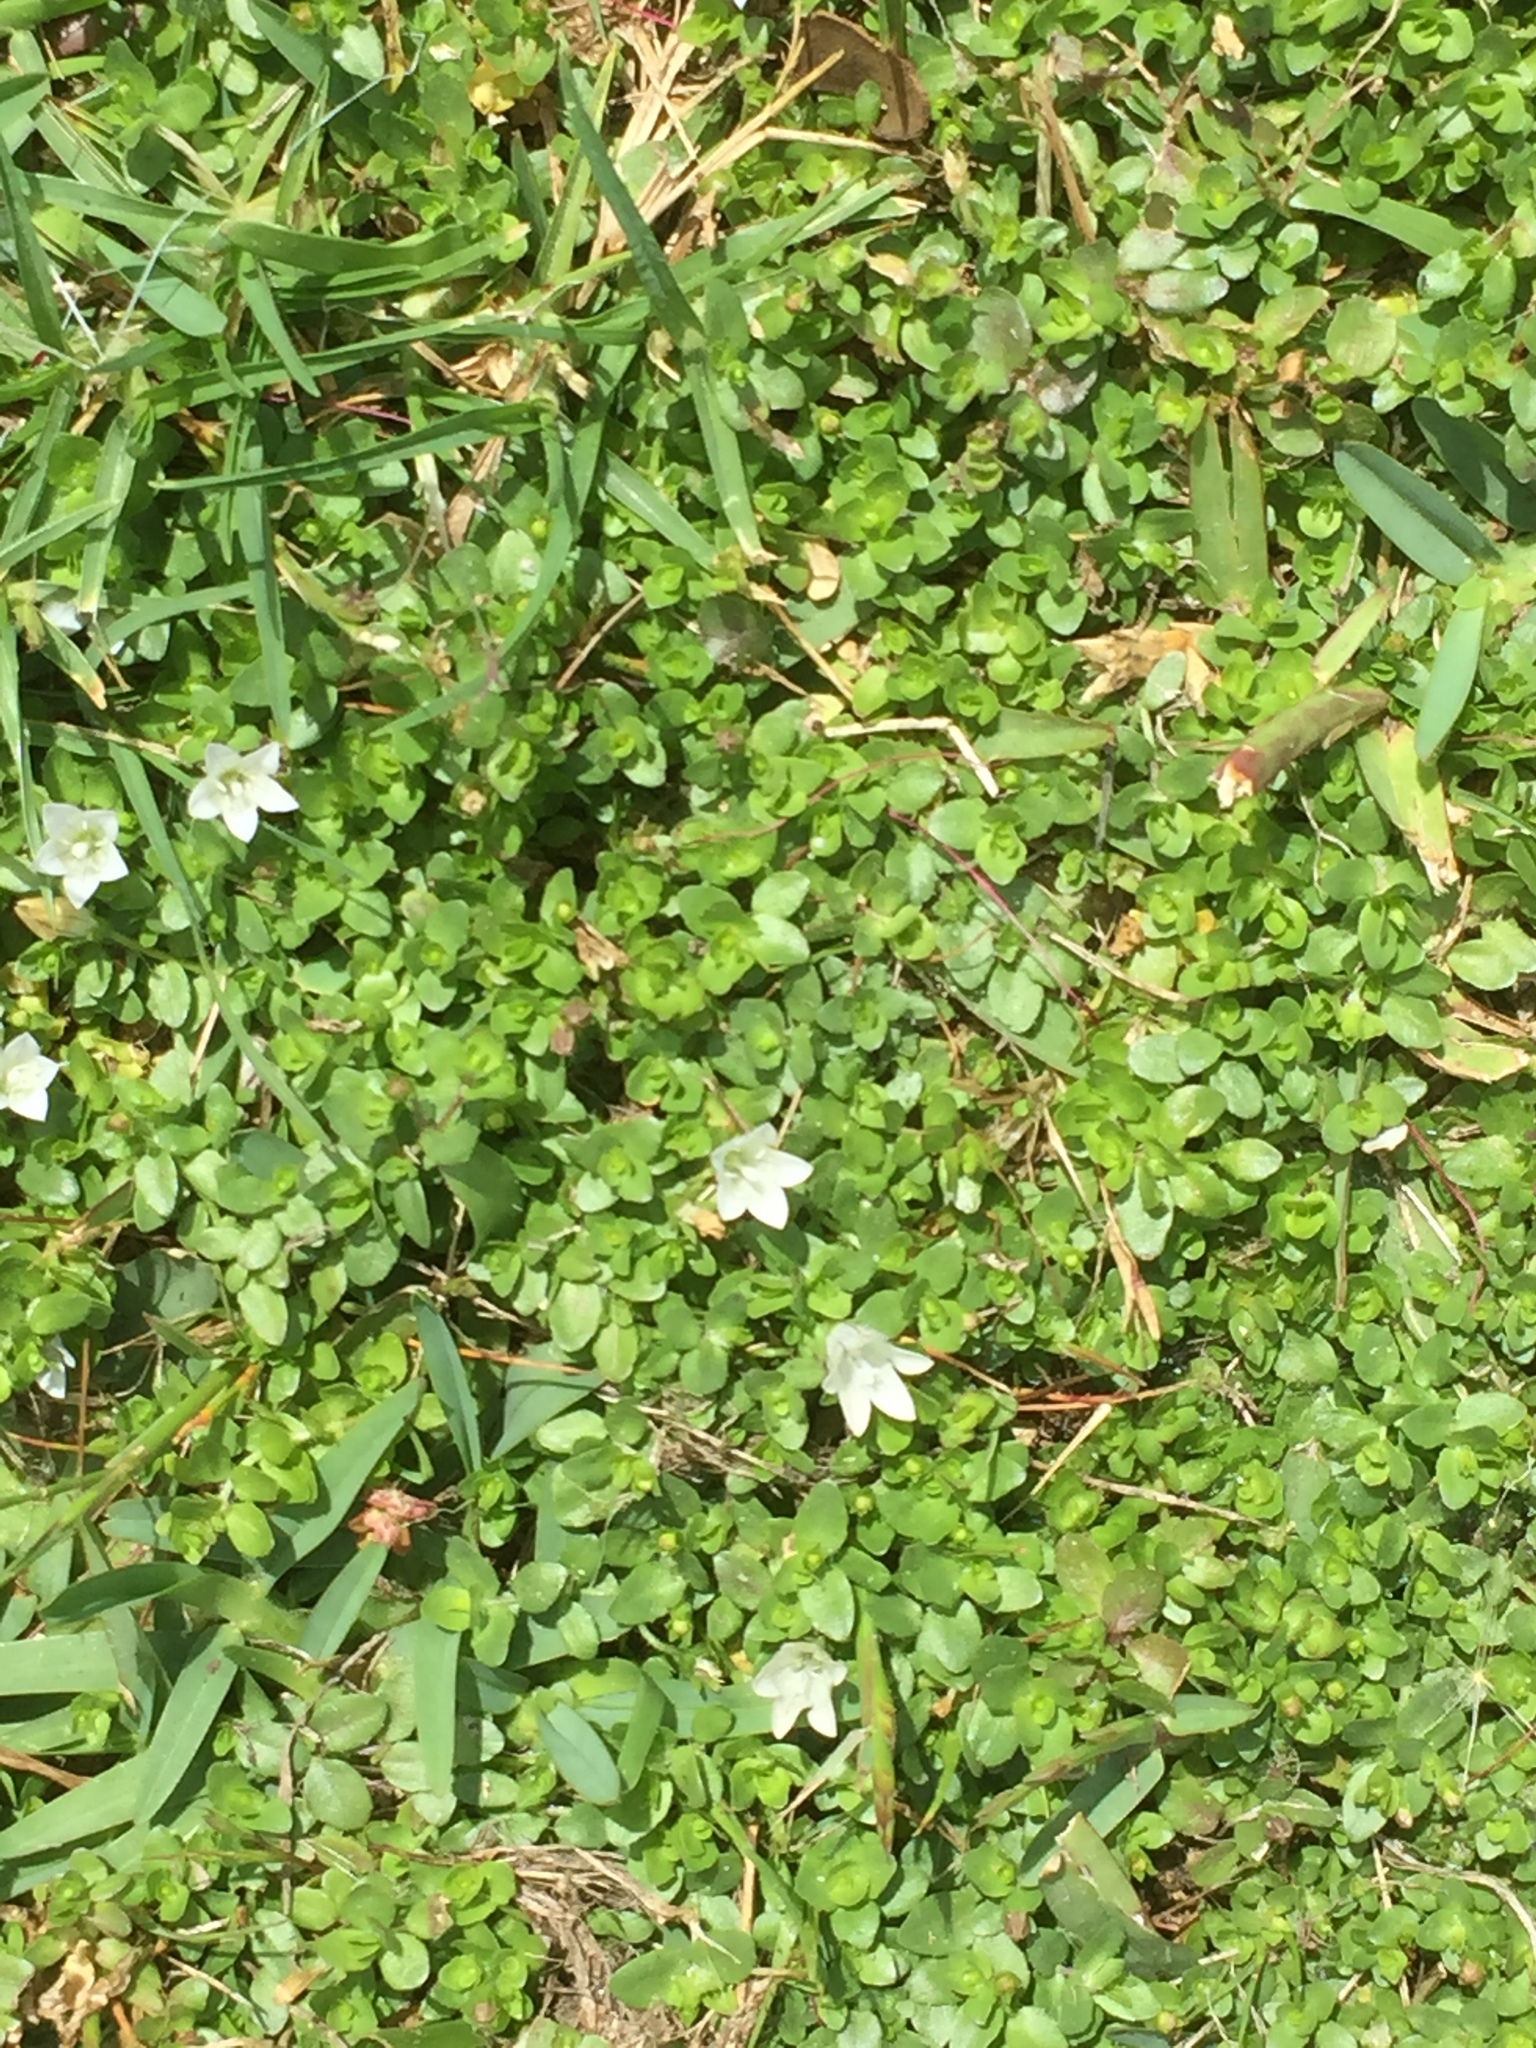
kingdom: Plantae
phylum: Tracheophyta
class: Magnoliopsida
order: Asterales
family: Campanulaceae
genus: Wahlenbergia
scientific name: Wahlenbergia procumbens
